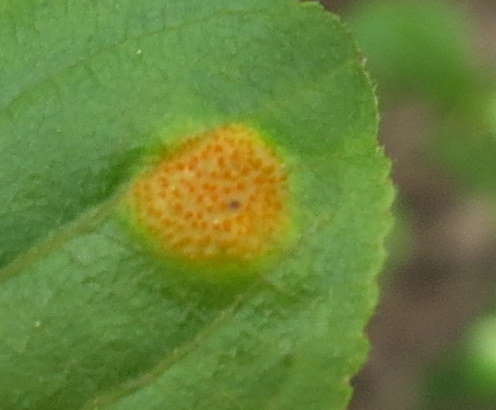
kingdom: Fungi
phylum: Basidiomycota
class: Pucciniomycetes
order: Pucciniales
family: Pucciniaceae
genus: Puccinia
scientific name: Puccinia coronata
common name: Crown rust
